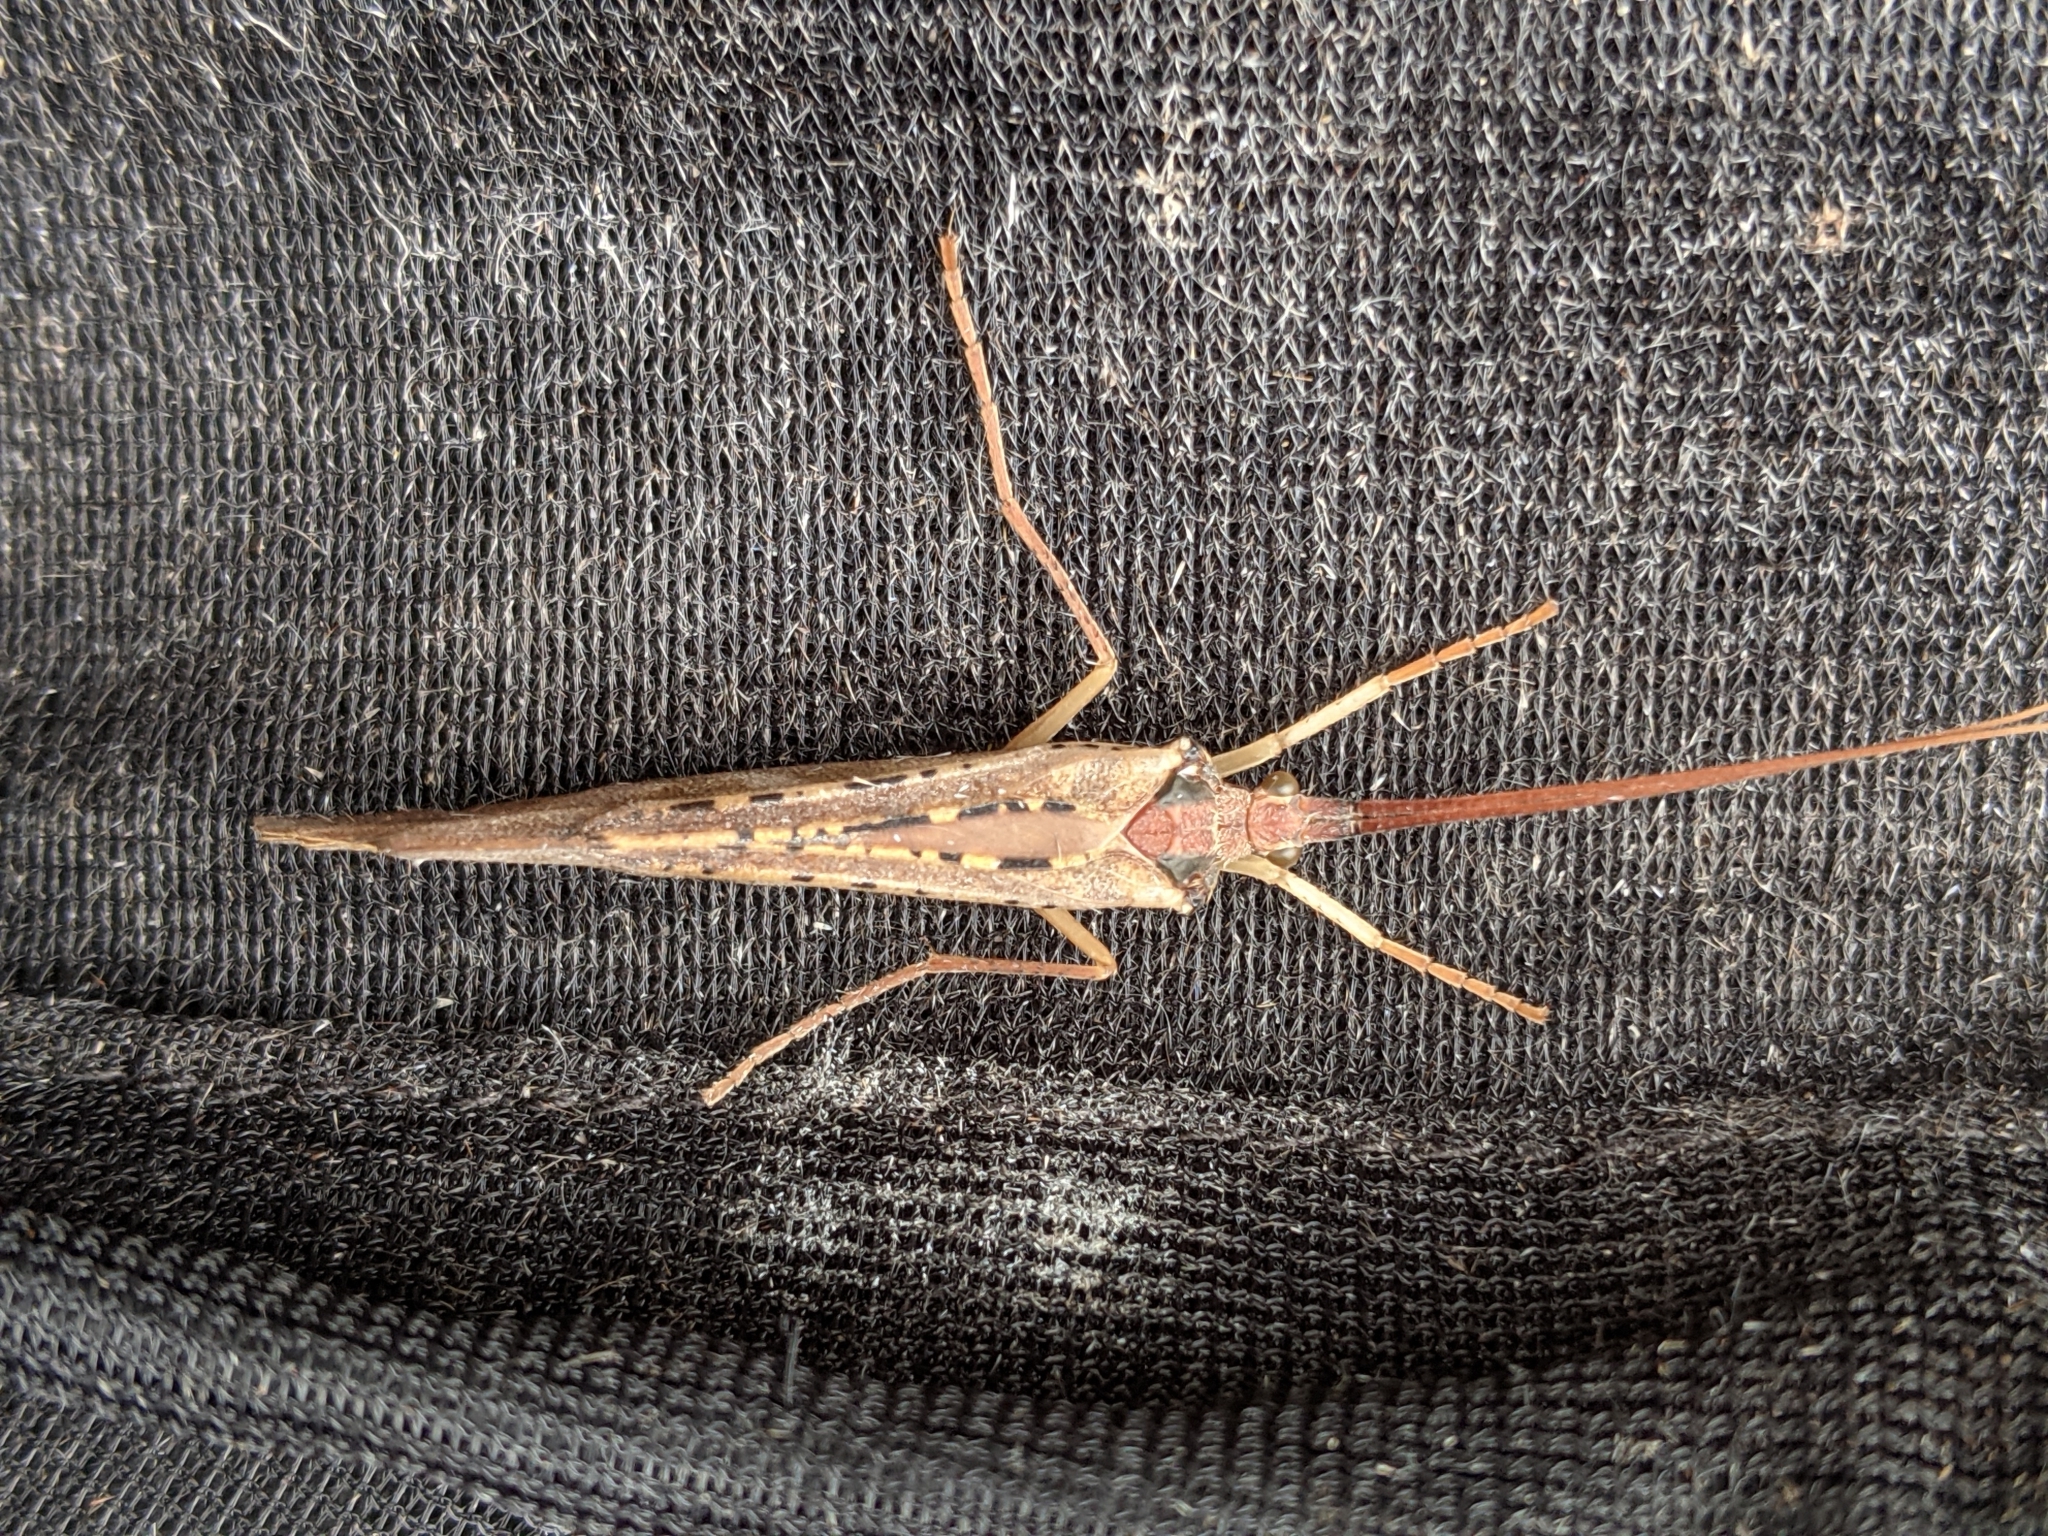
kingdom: Animalia
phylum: Arthropoda
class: Insecta
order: Trichoptera
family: Limnephilidae
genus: Nemotaulius
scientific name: Nemotaulius hostilis
